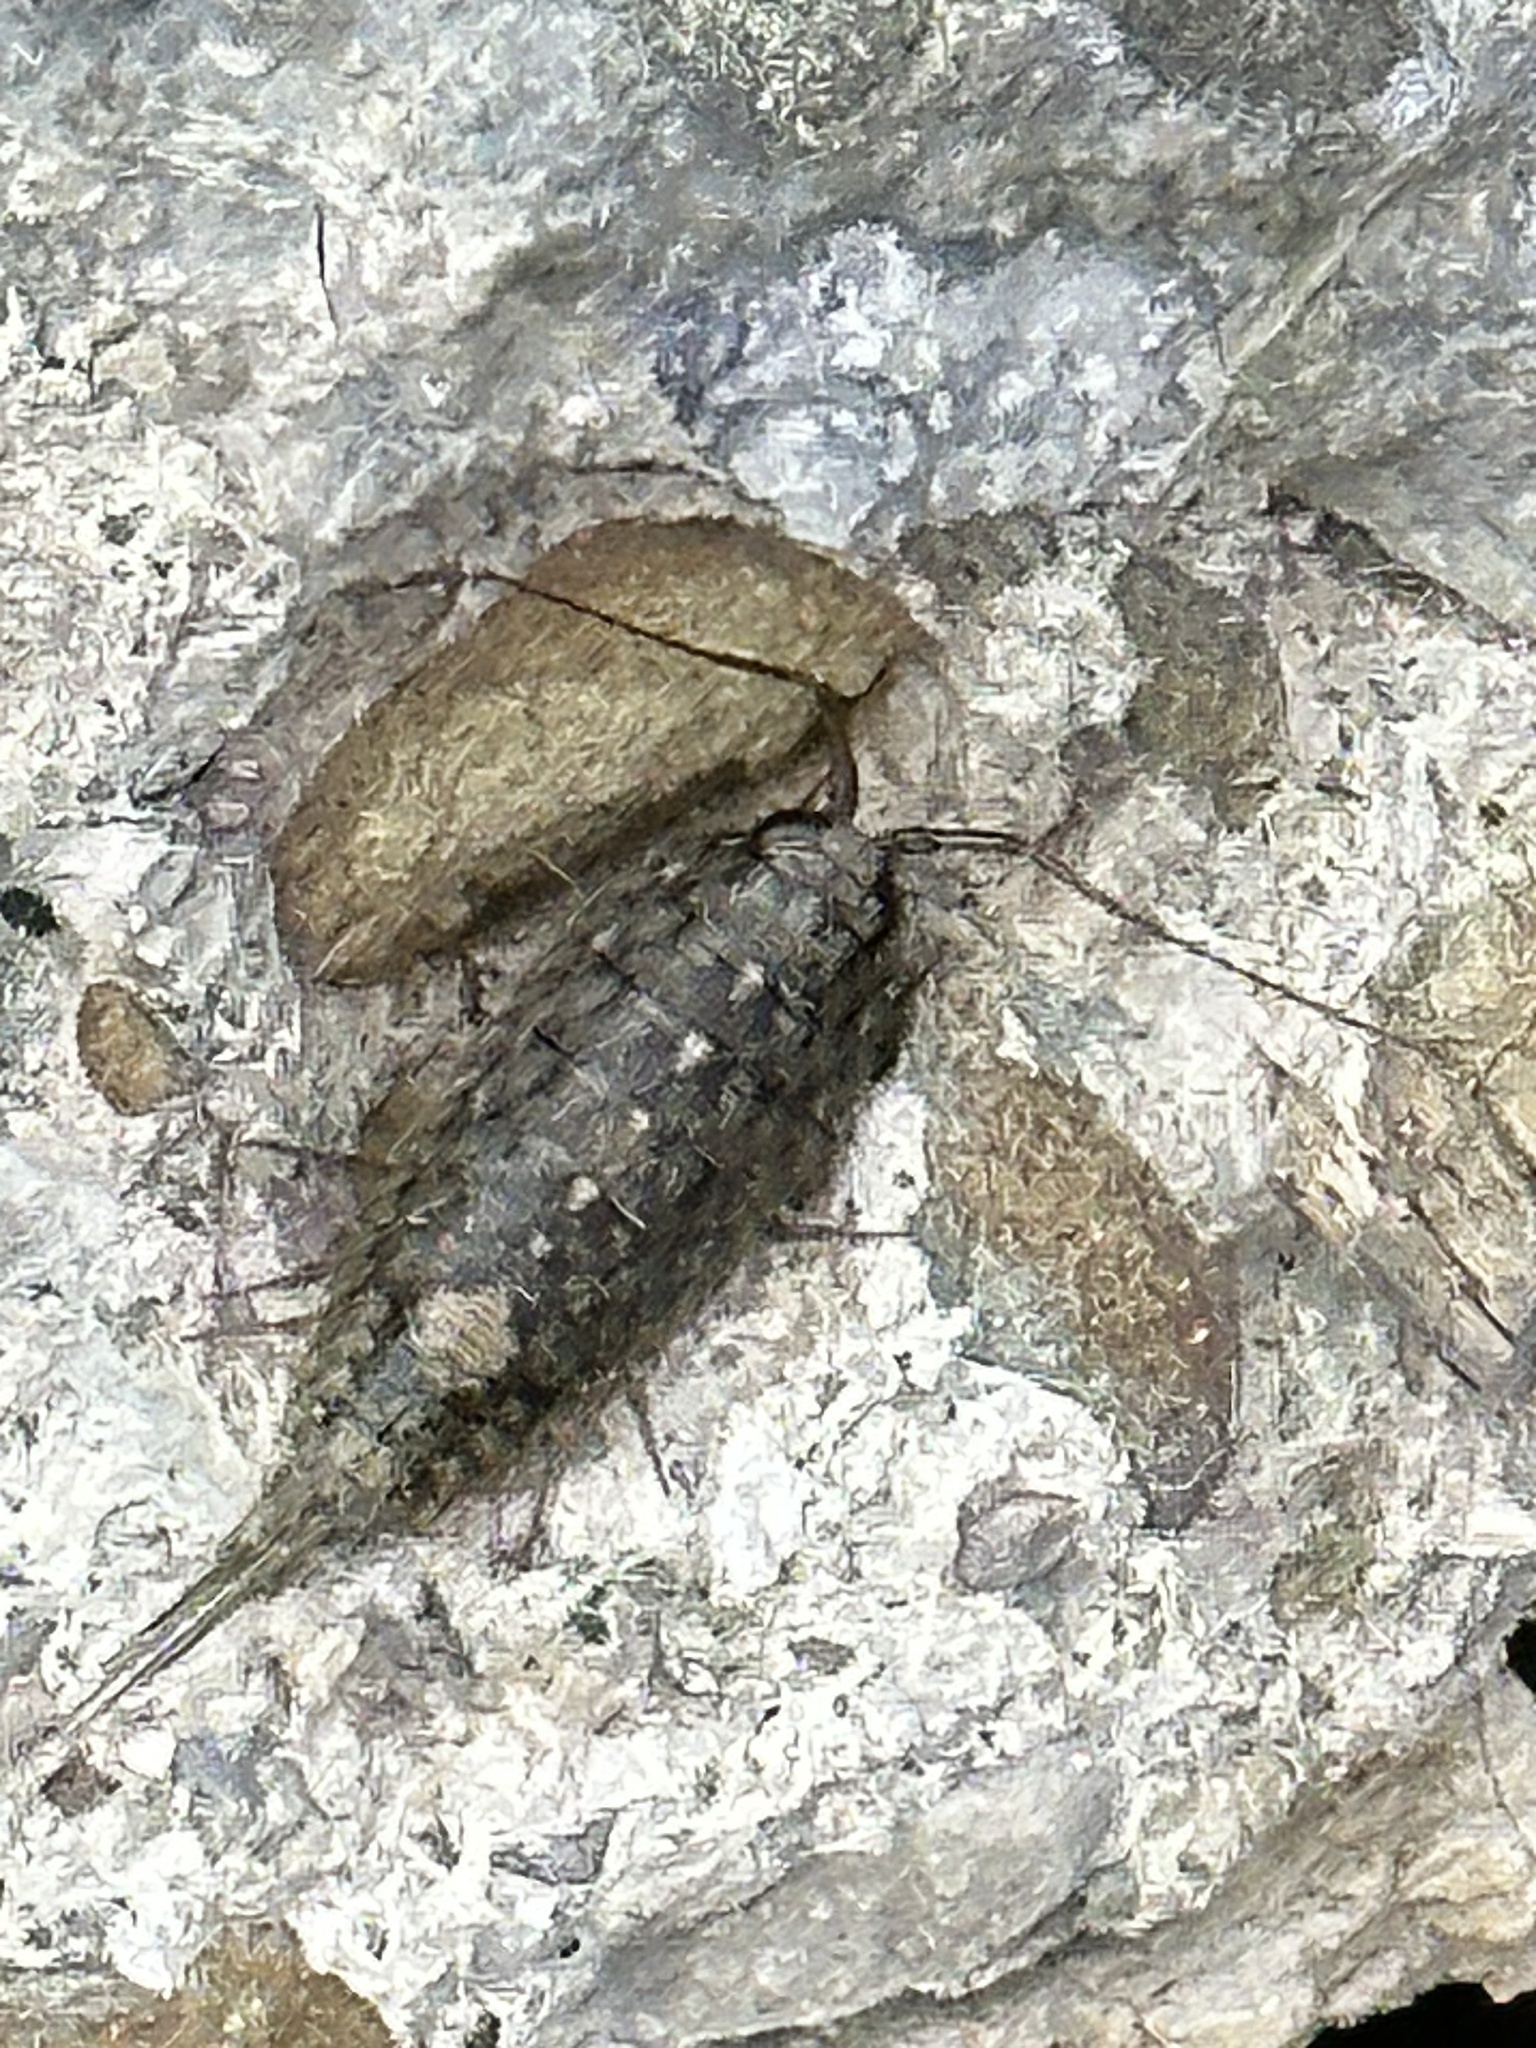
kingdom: Animalia
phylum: Arthropoda
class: Malacostraca
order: Isopoda
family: Ligiidae
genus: Ligia
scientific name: Ligia occidentalis
